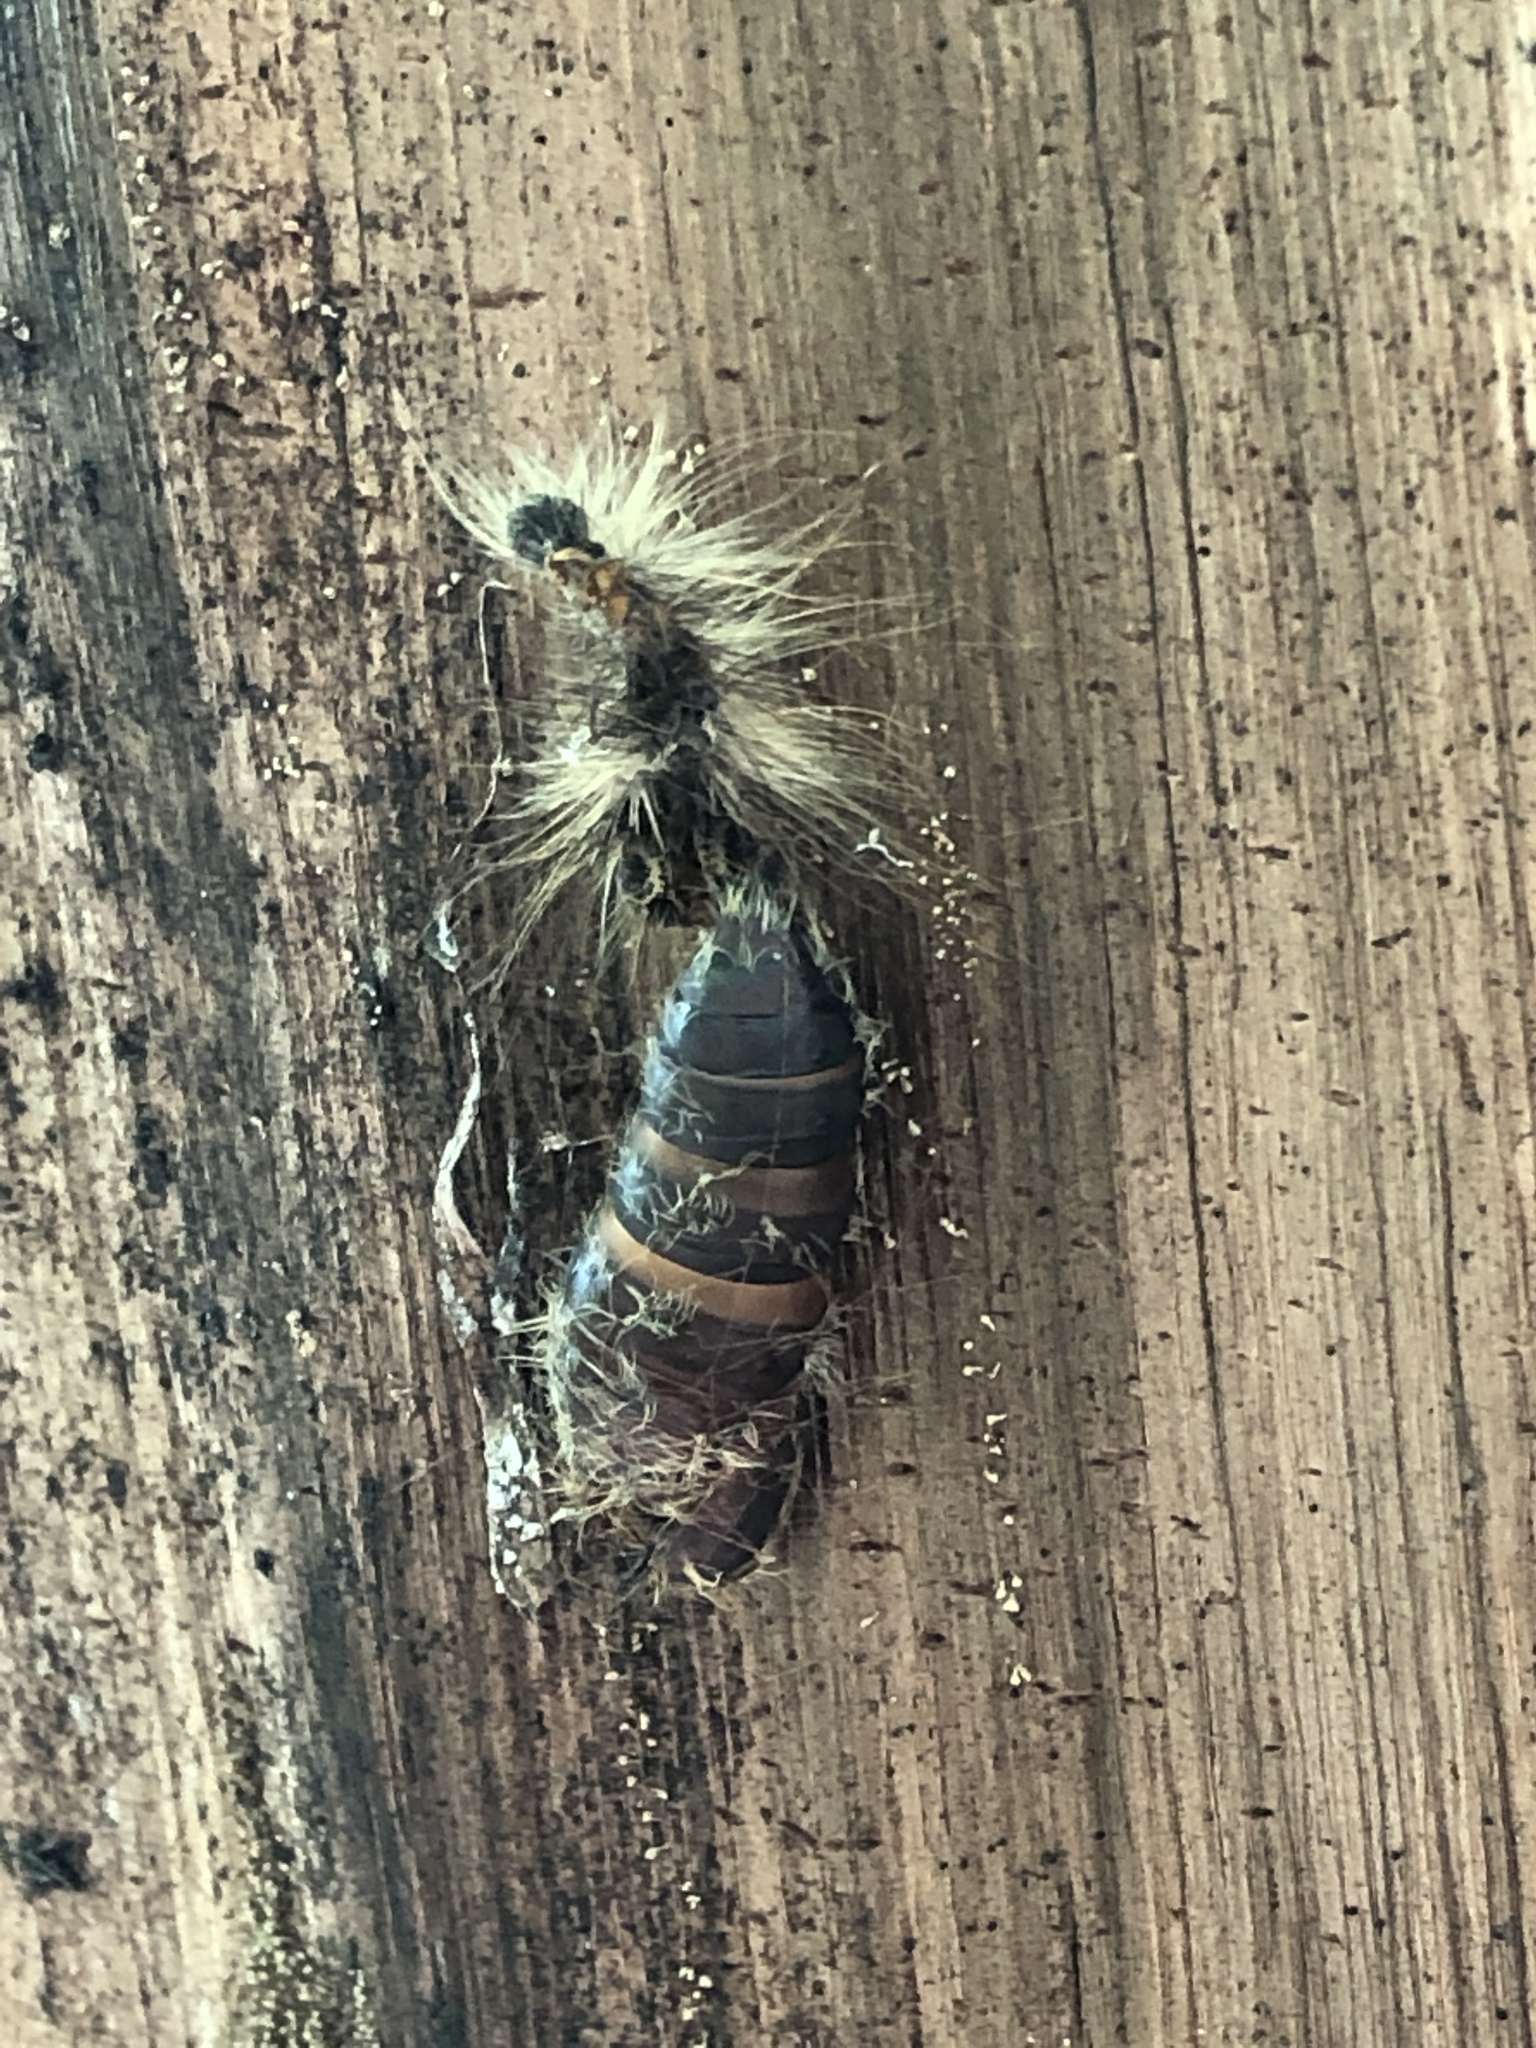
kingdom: Animalia
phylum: Arthropoda
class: Insecta
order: Lepidoptera
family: Erebidae
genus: Lymantria
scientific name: Lymantria dispar
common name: Gypsy moth
